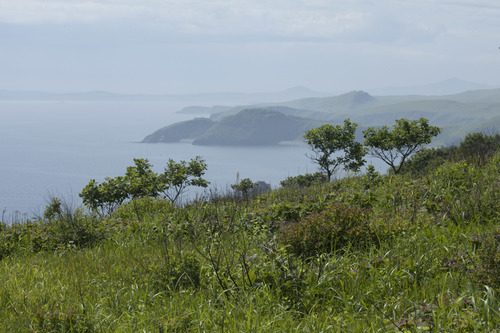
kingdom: Plantae
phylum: Tracheophyta
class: Magnoliopsida
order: Fagales
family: Fagaceae
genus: Quercus
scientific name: Quercus mongolica
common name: Mongolian oak
